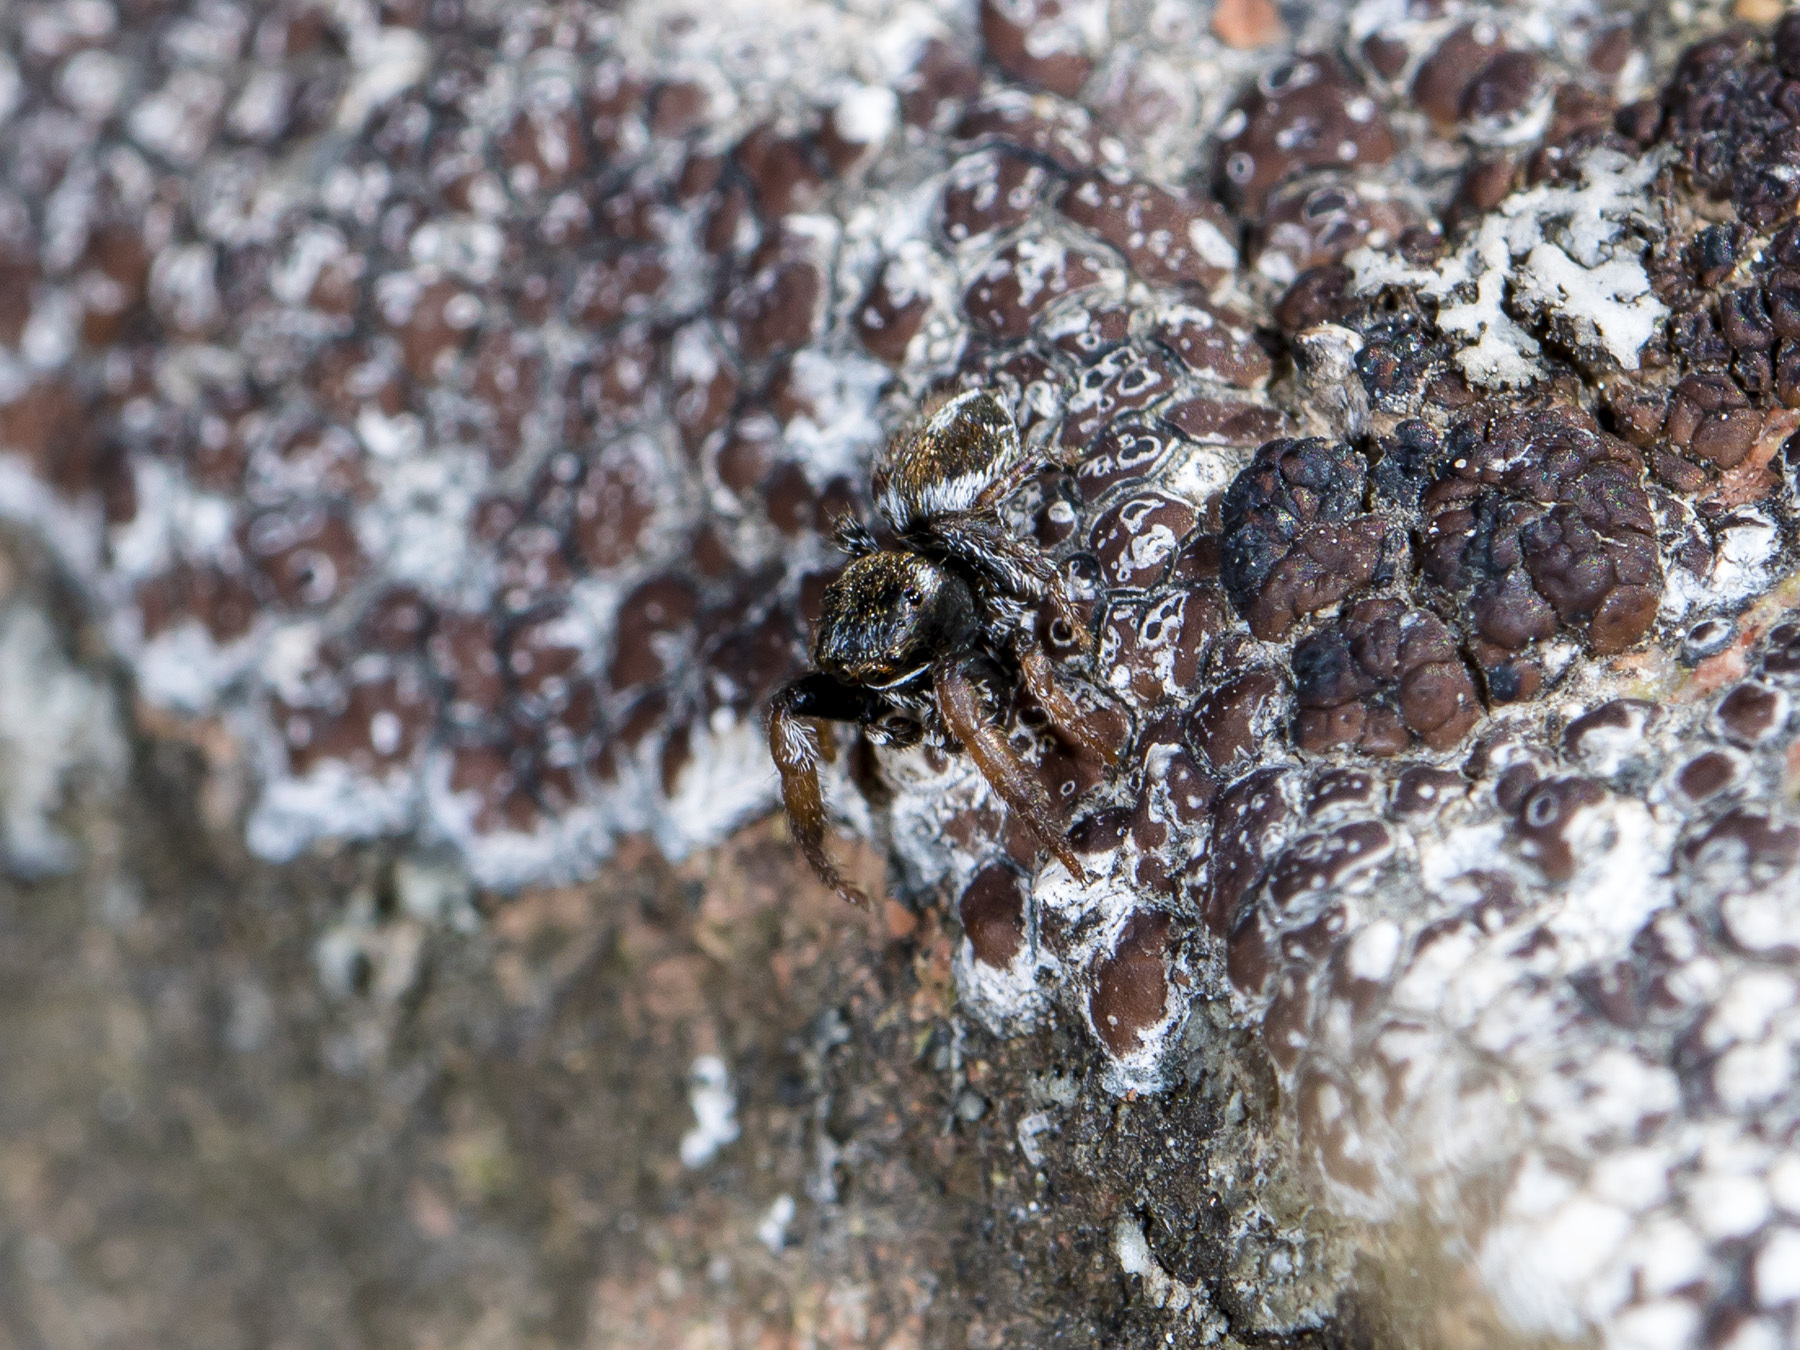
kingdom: Animalia
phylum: Arthropoda
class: Arachnida
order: Araneae
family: Salticidae
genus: Pellenes
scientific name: Pellenes geniculatus
